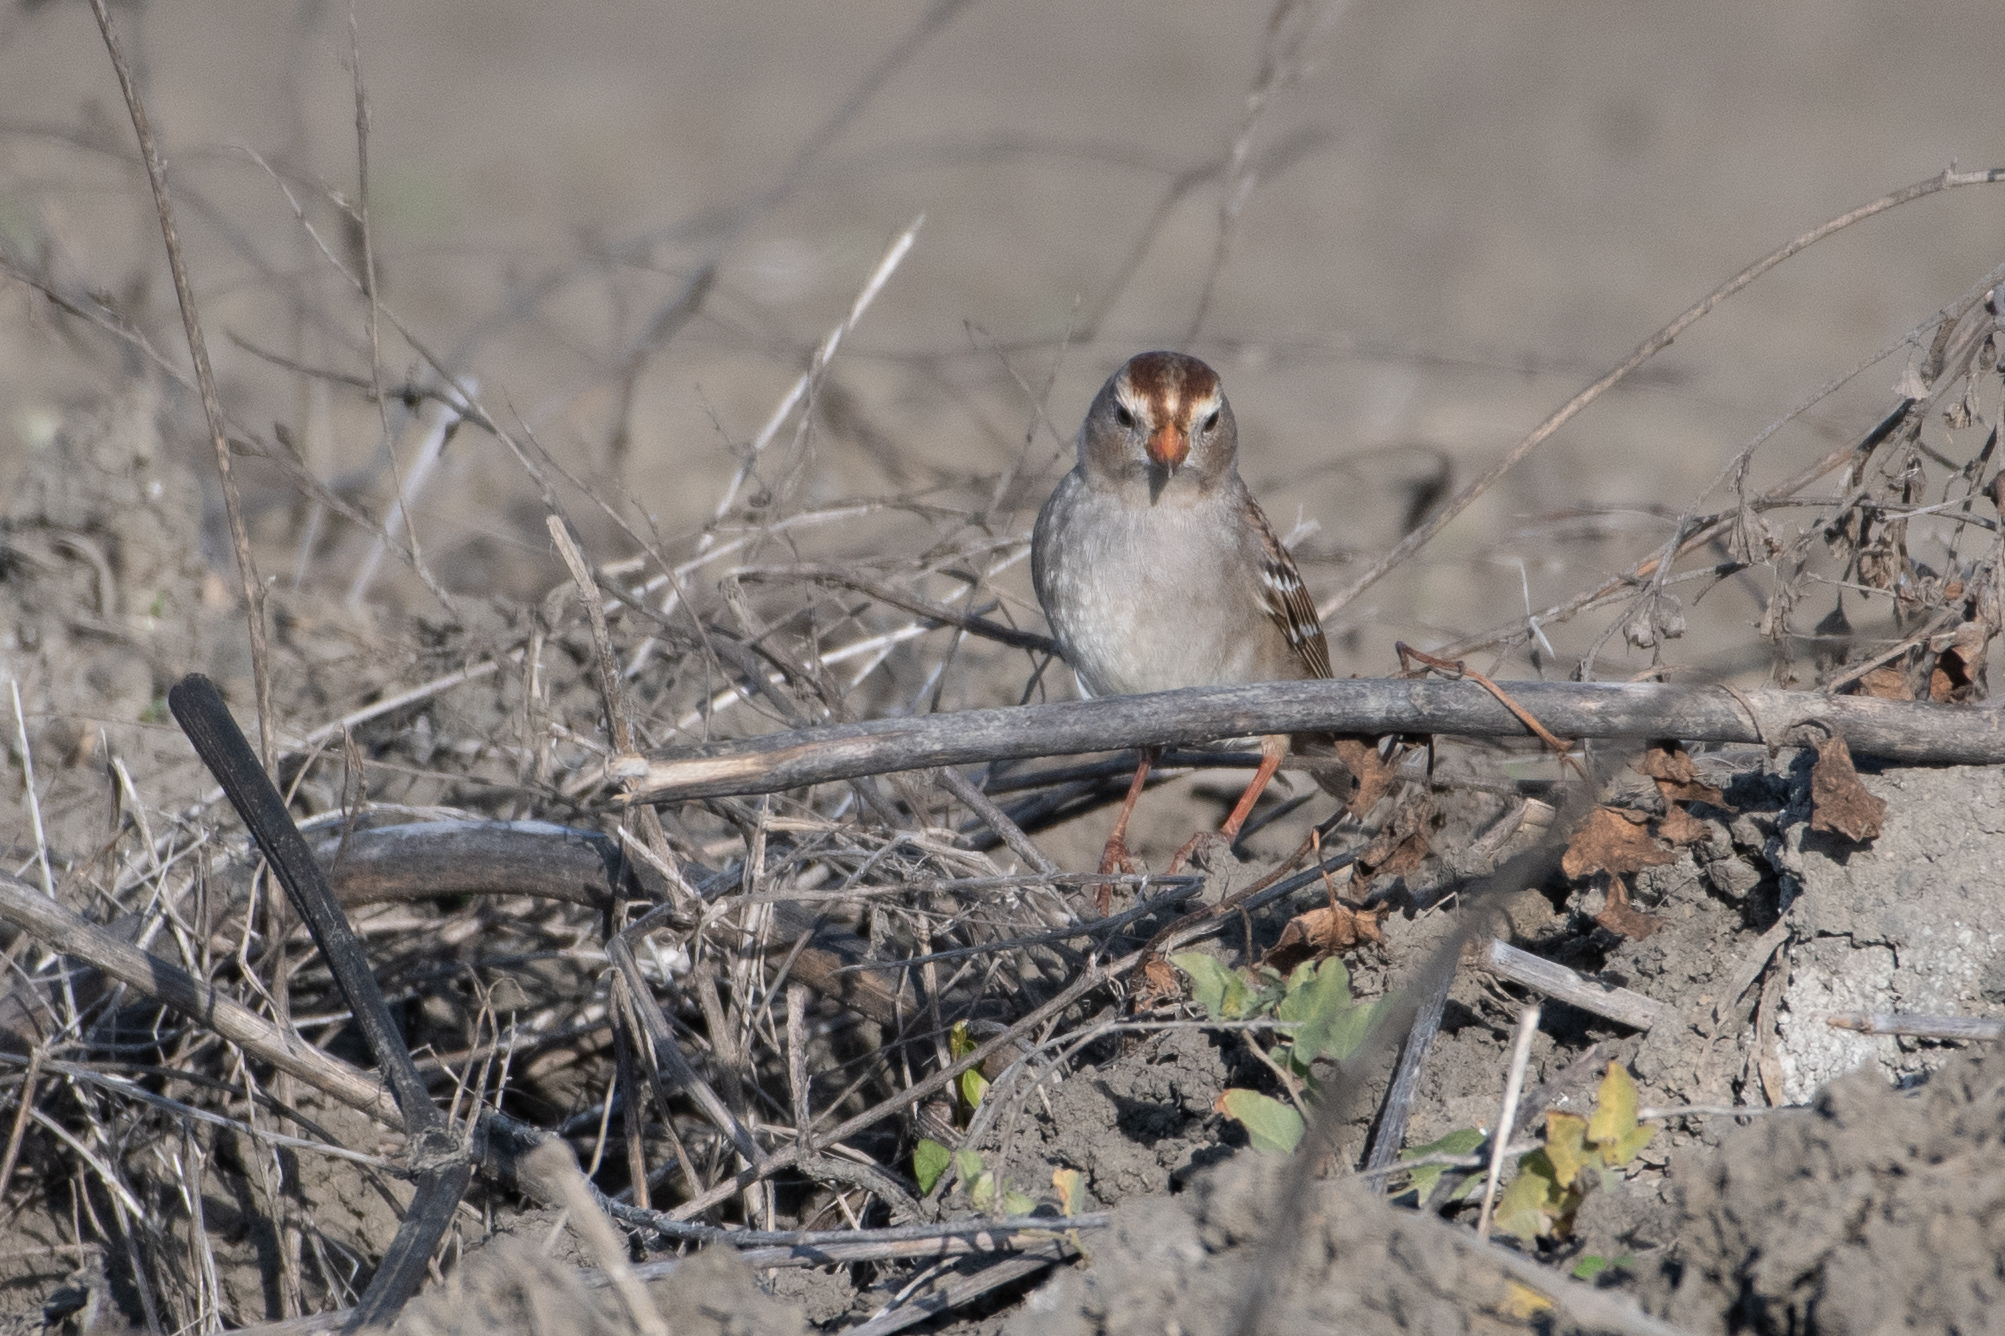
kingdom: Animalia
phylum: Chordata
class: Aves
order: Passeriformes
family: Passerellidae
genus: Zonotrichia
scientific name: Zonotrichia leucophrys
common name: White-crowned sparrow
